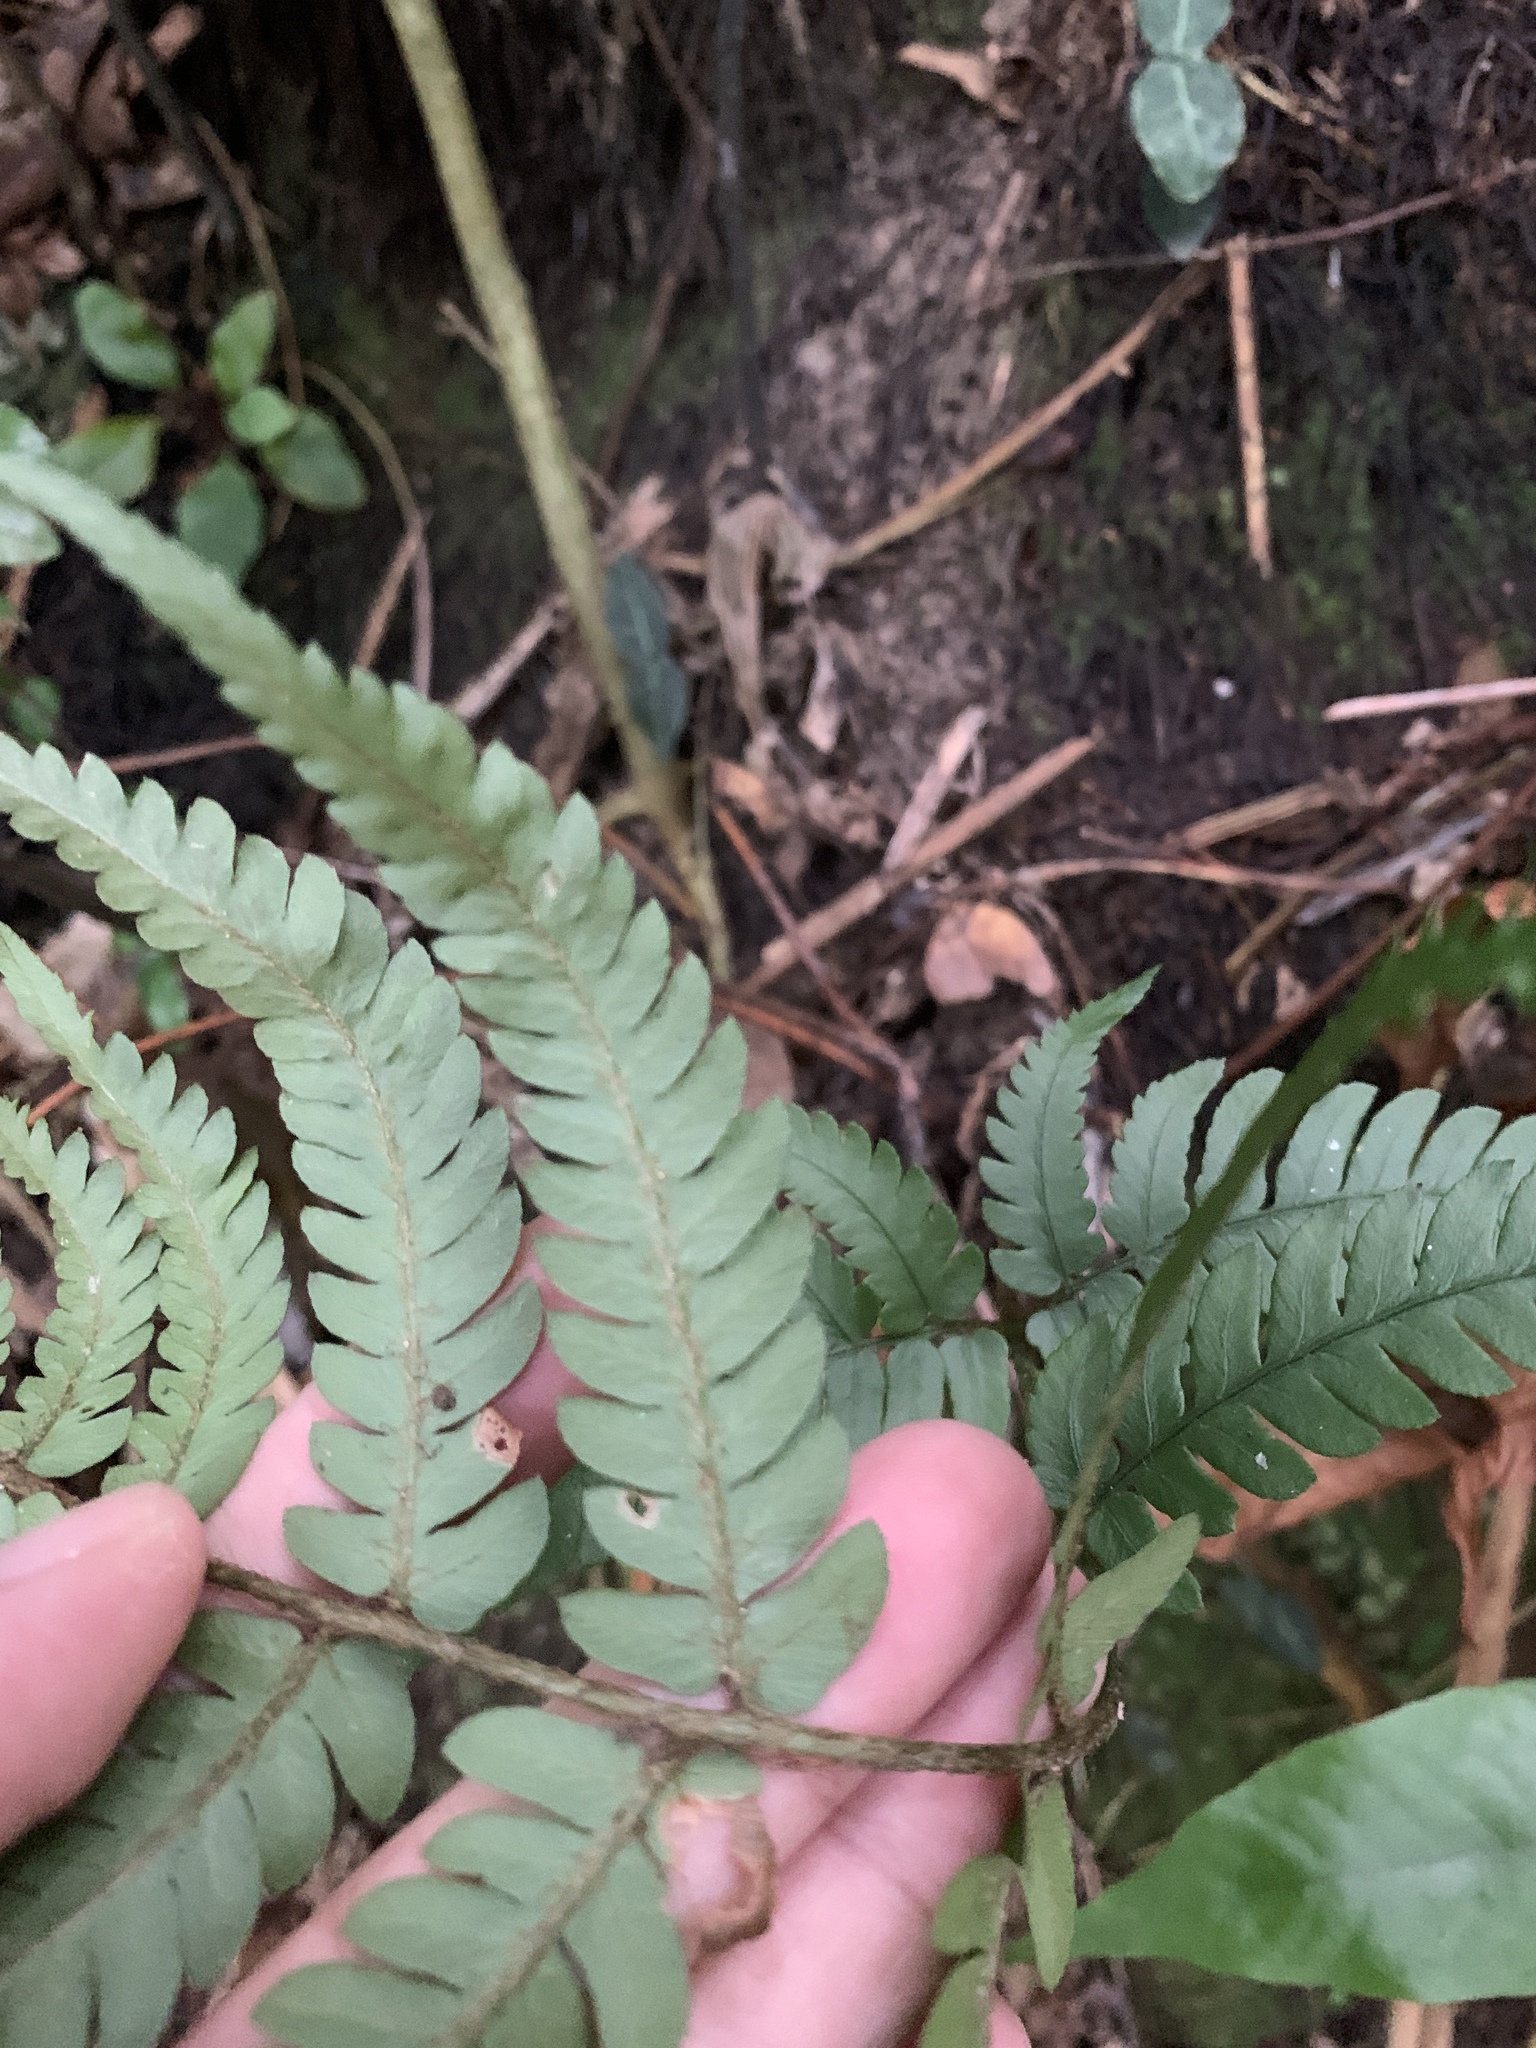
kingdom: Plantae
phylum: Tracheophyta
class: Polypodiopsida
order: Polypodiales
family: Dryopteridaceae
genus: Dryopteris
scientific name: Dryopteris varia
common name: Japanese holly fern
